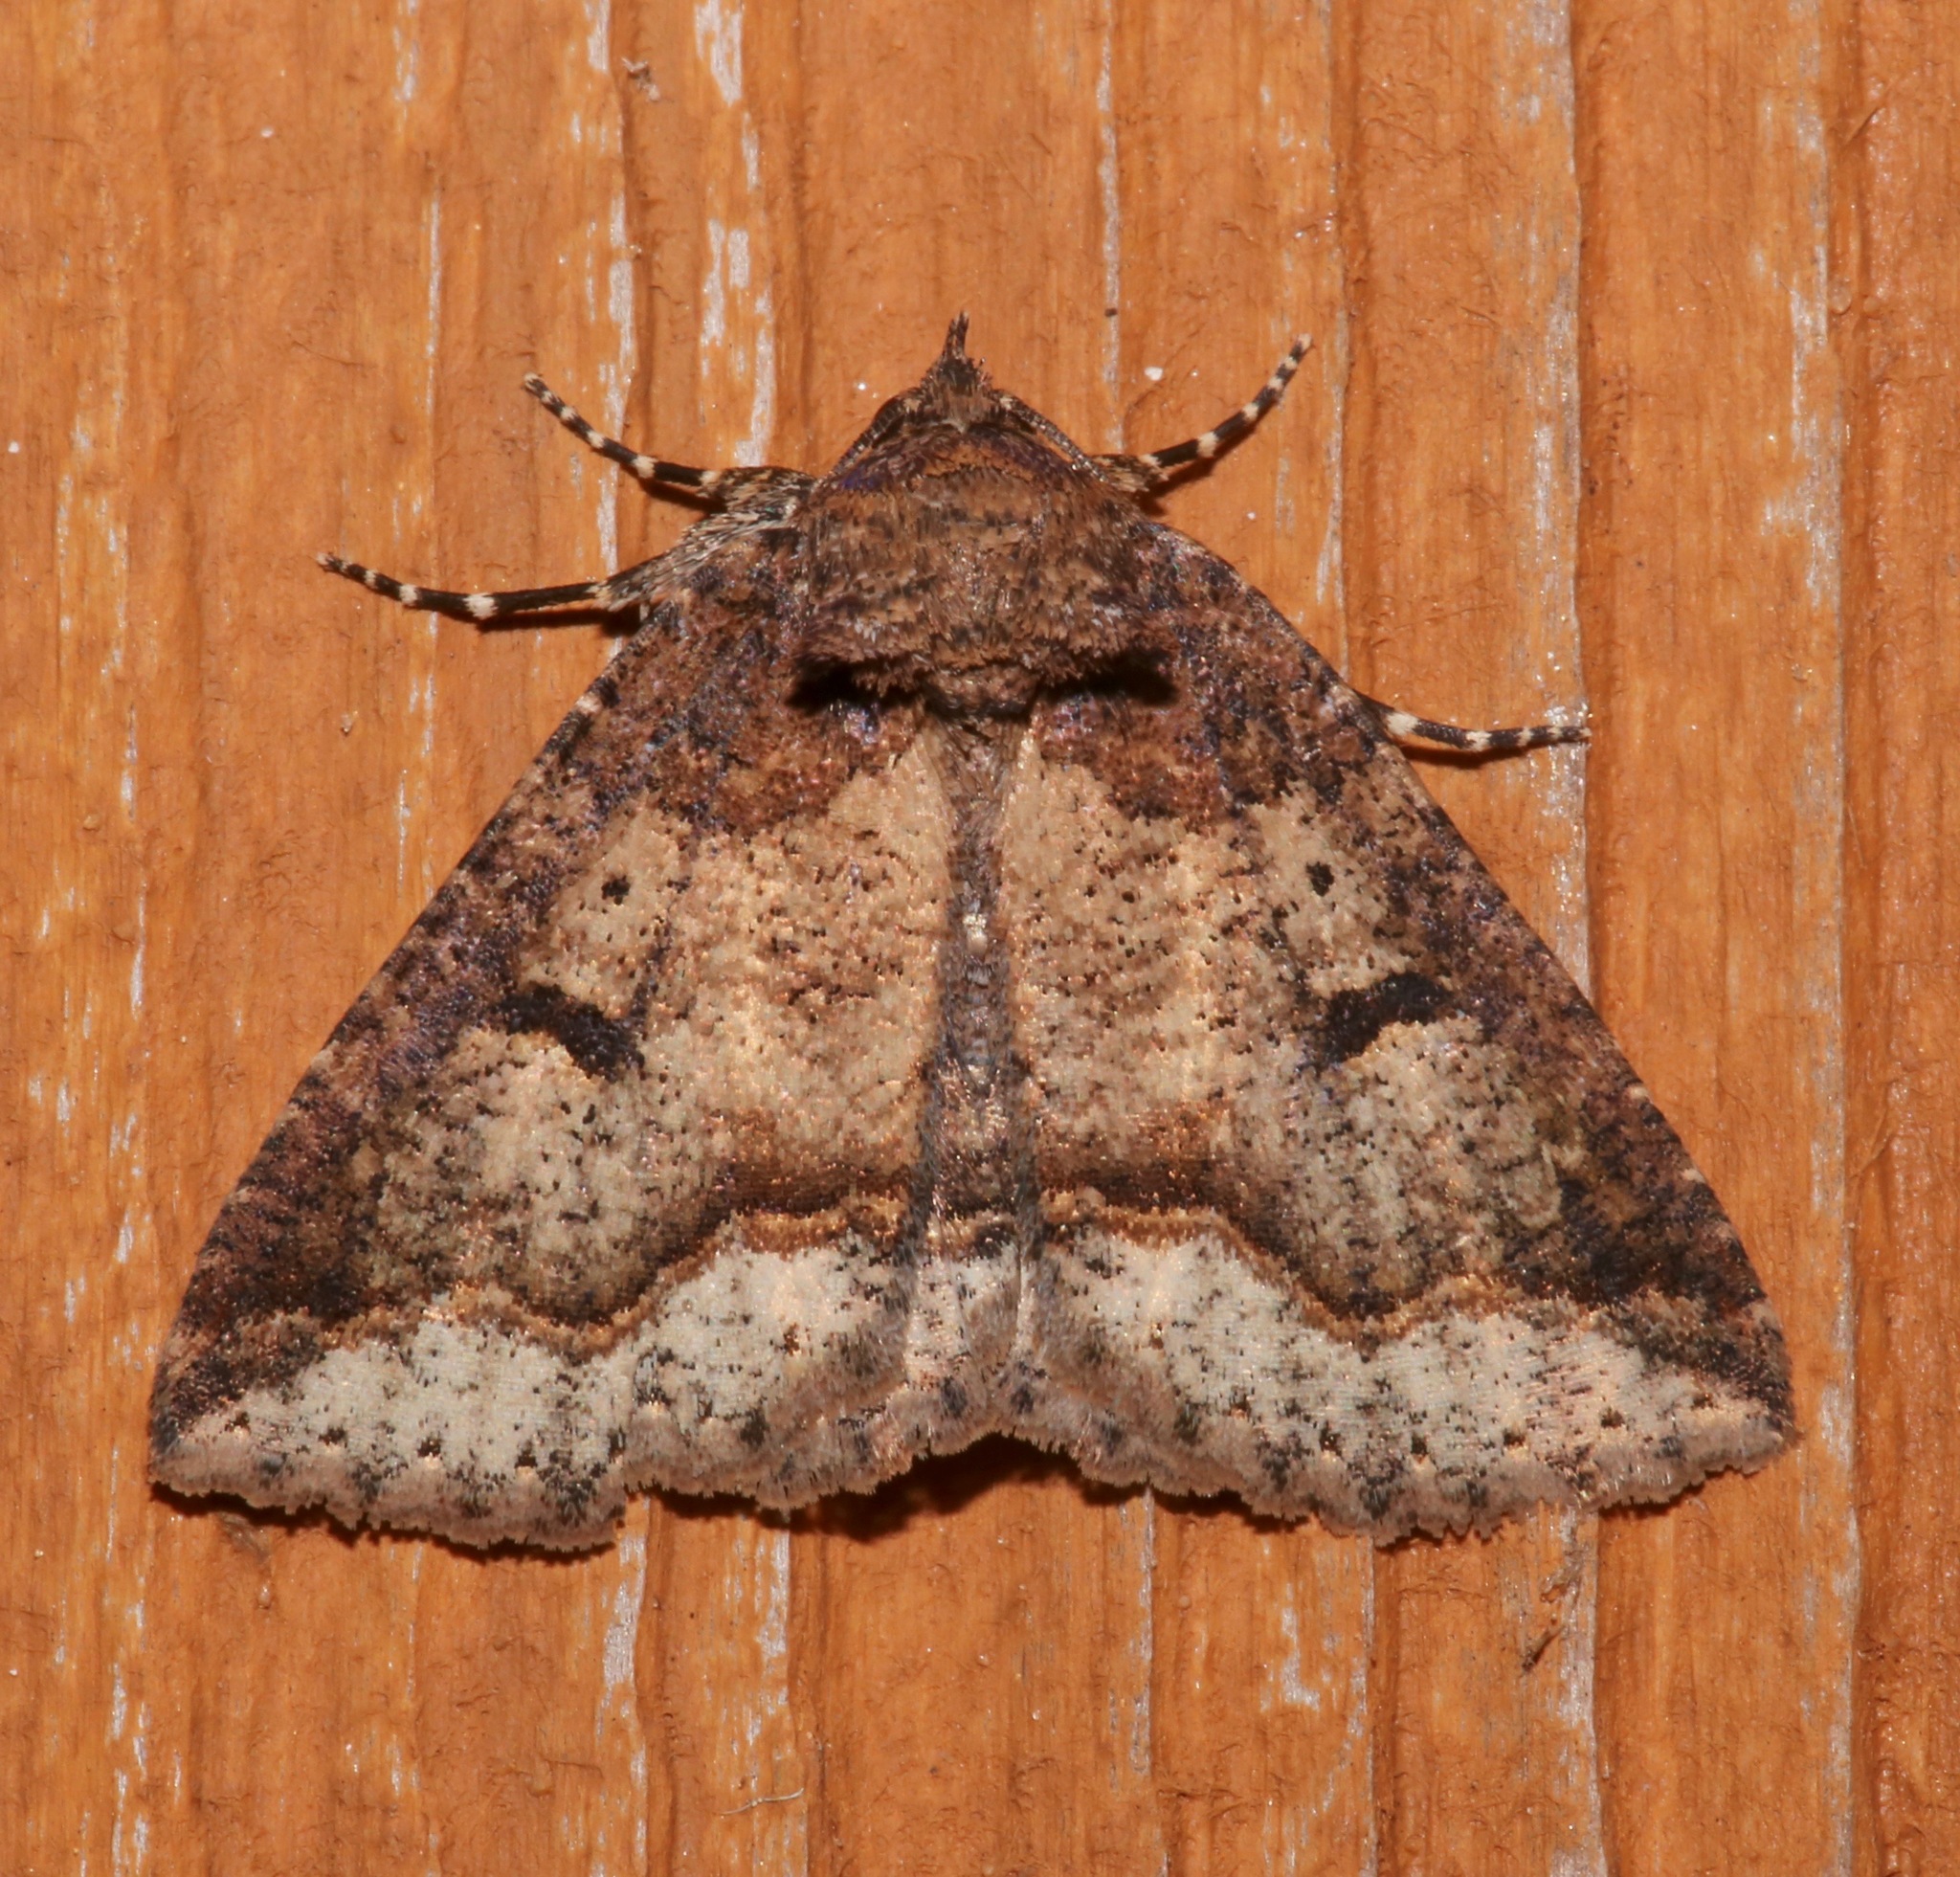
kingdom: Animalia
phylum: Arthropoda
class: Insecta
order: Lepidoptera
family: Erebidae
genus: Zale
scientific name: Zale declarans
